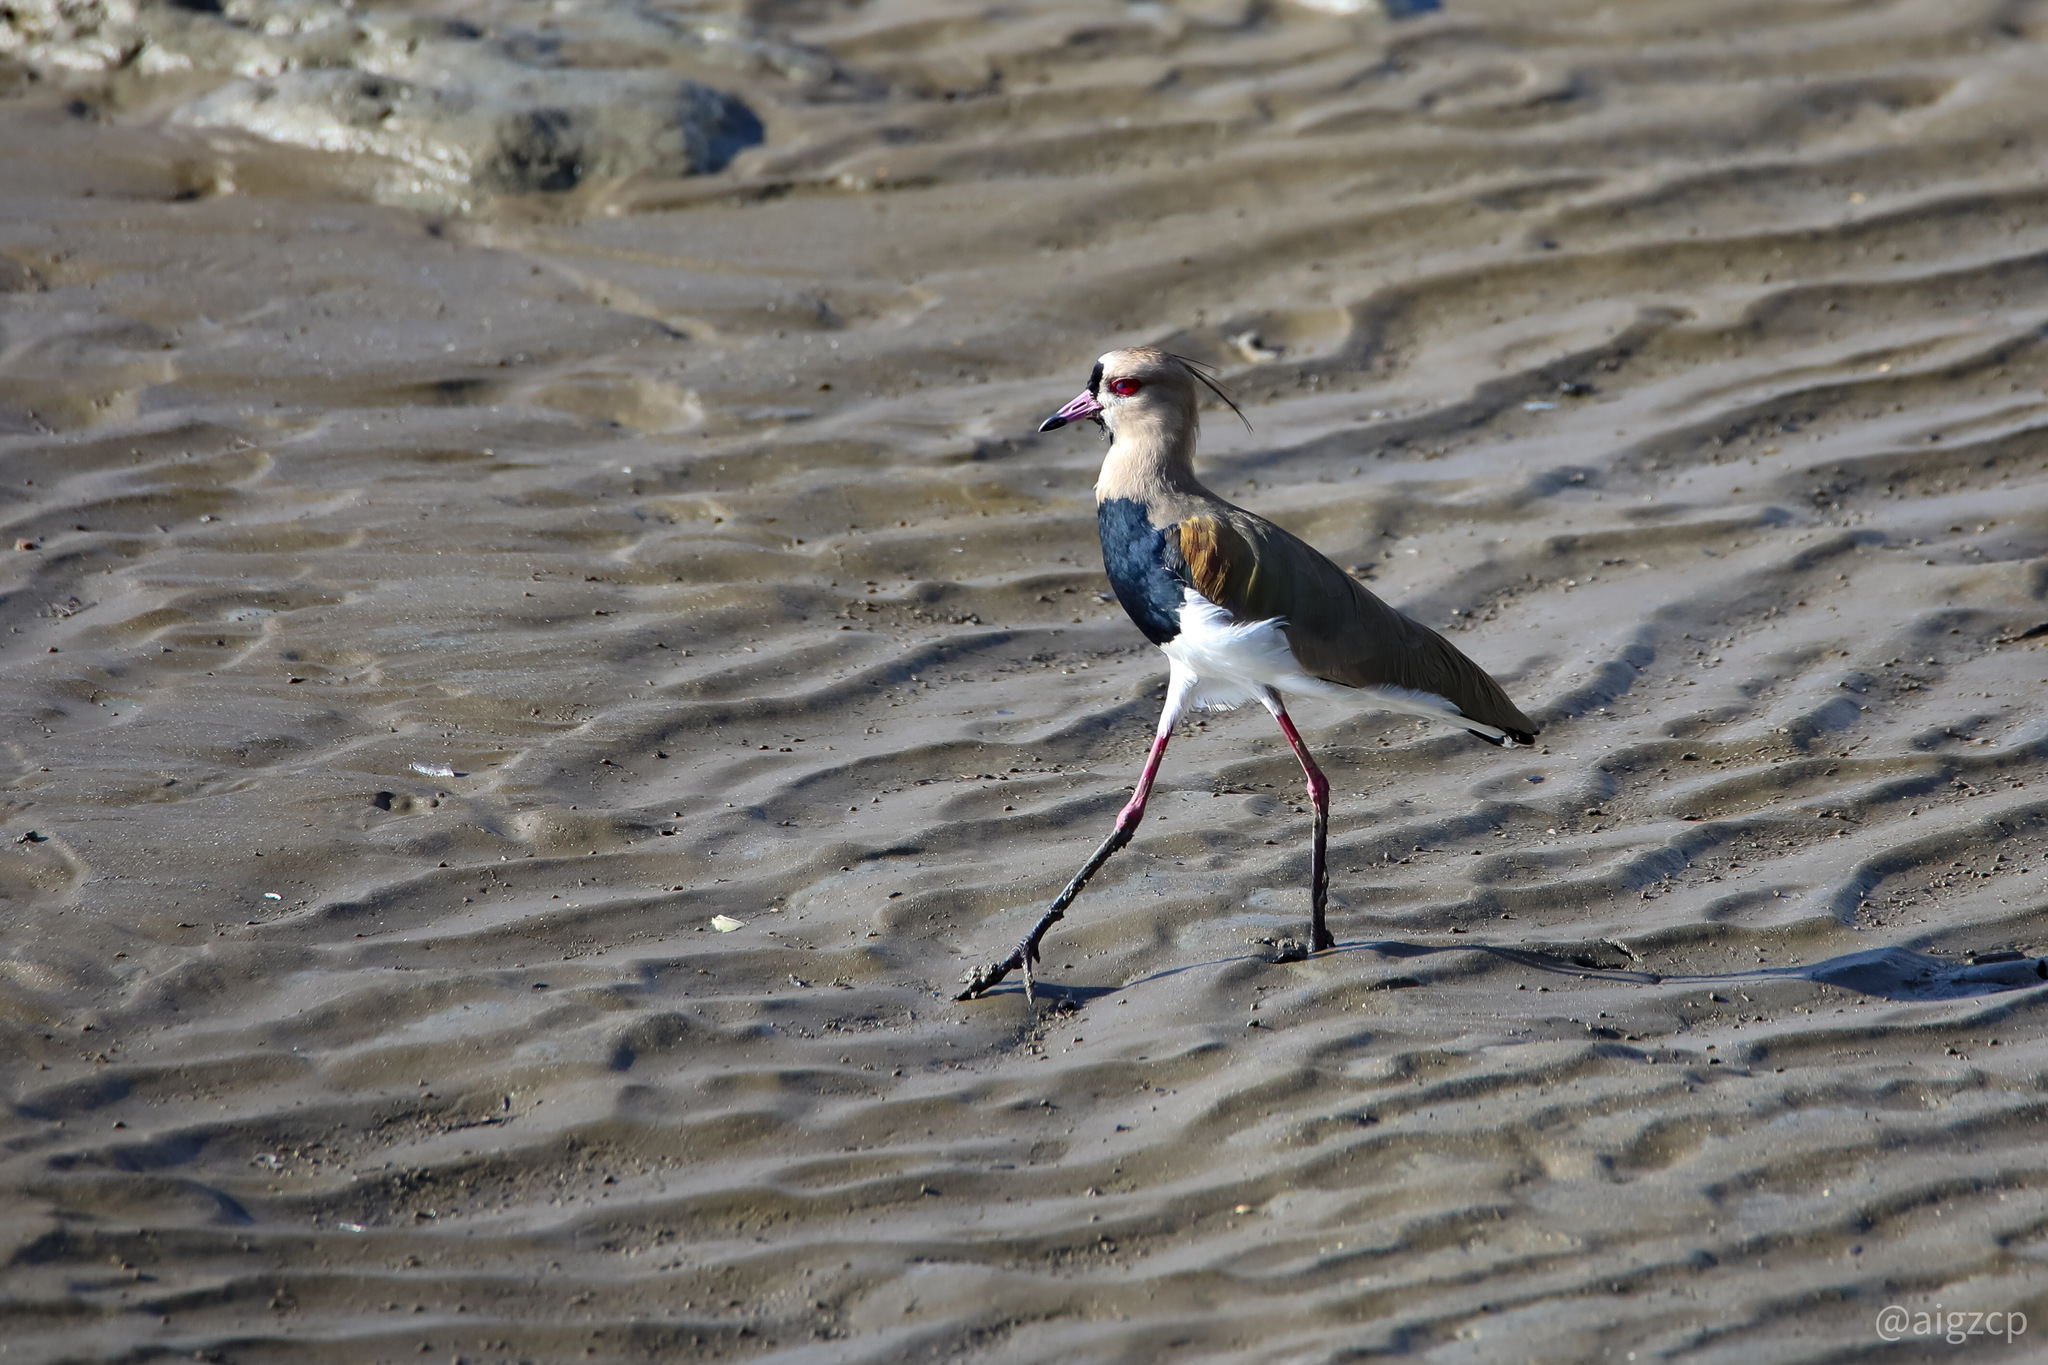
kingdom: Animalia
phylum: Chordata
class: Aves
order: Charadriiformes
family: Charadriidae
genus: Vanellus
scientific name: Vanellus chilensis
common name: Southern lapwing
